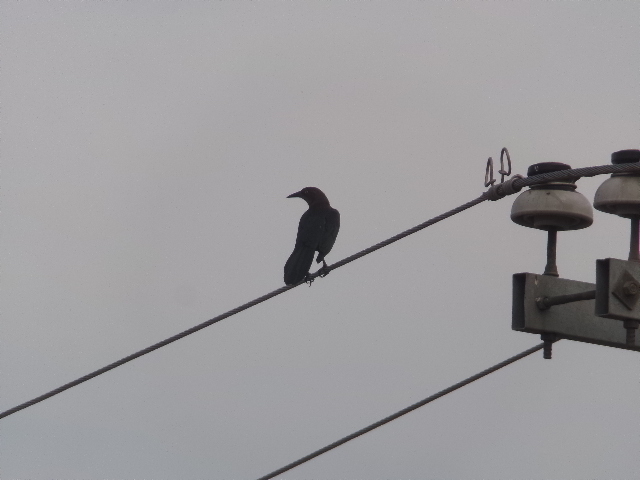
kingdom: Animalia
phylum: Chordata
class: Aves
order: Passeriformes
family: Icteridae
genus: Quiscalus
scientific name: Quiscalus mexicanus
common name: Great-tailed grackle
